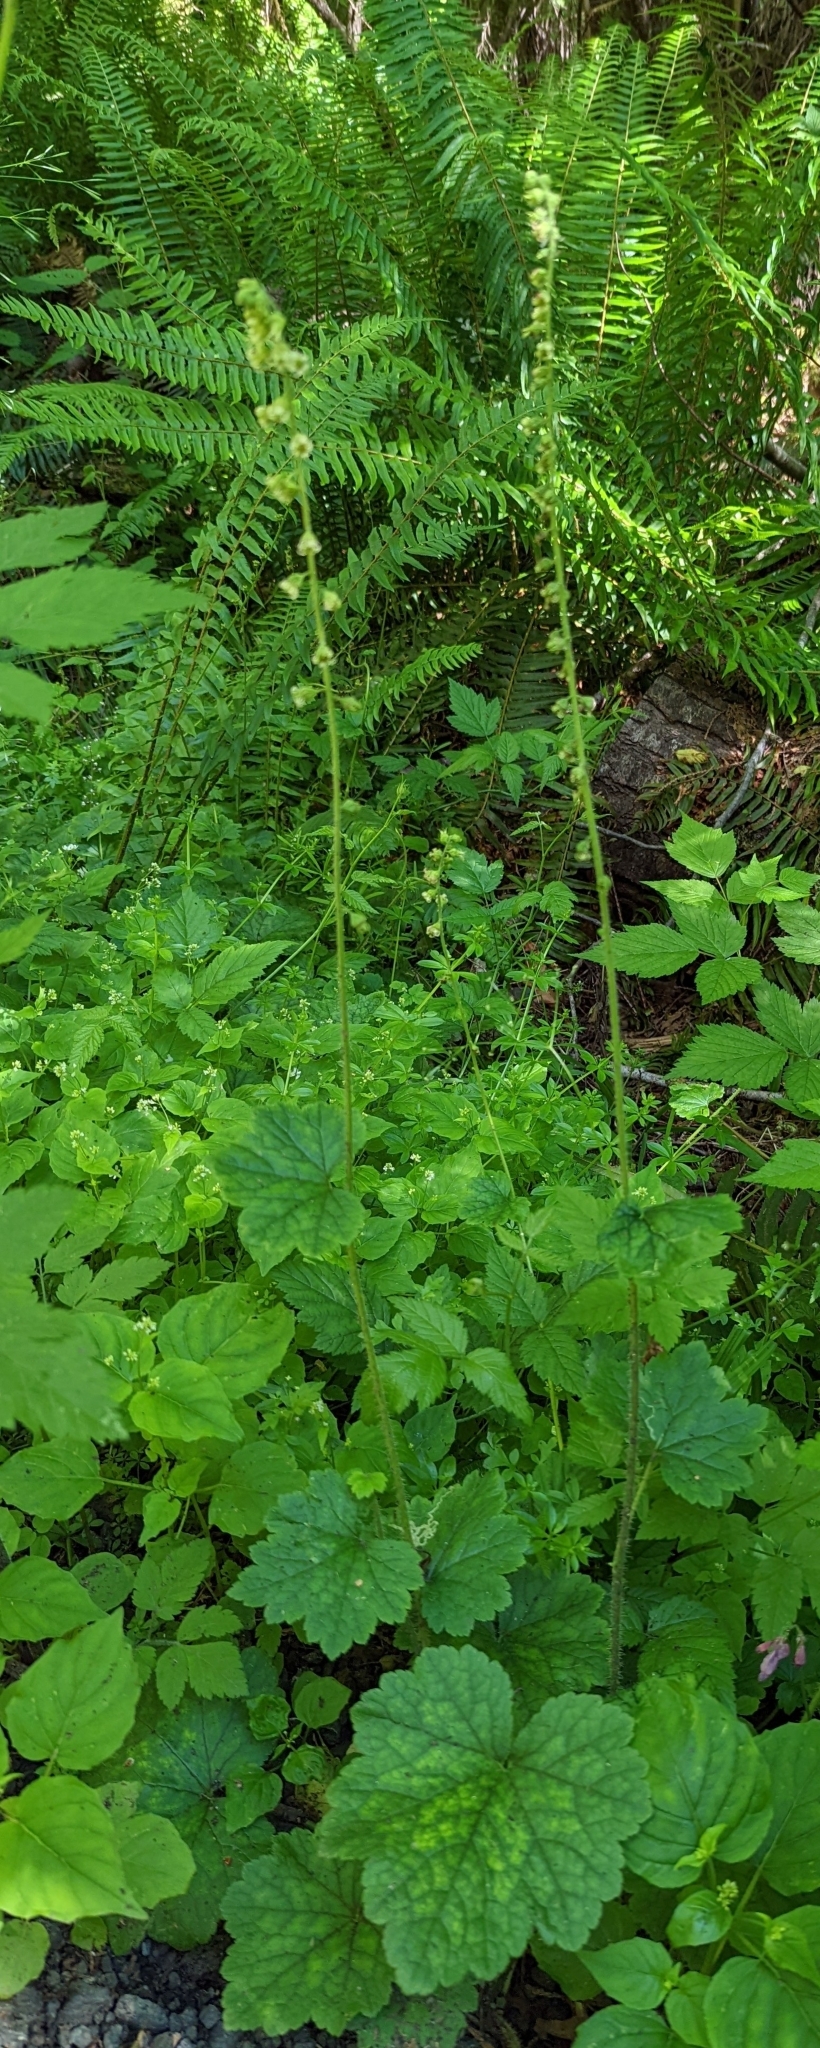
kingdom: Plantae
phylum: Tracheophyta
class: Magnoliopsida
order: Saxifragales
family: Saxifragaceae
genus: Tellima
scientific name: Tellima grandiflora
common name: Fringecups
